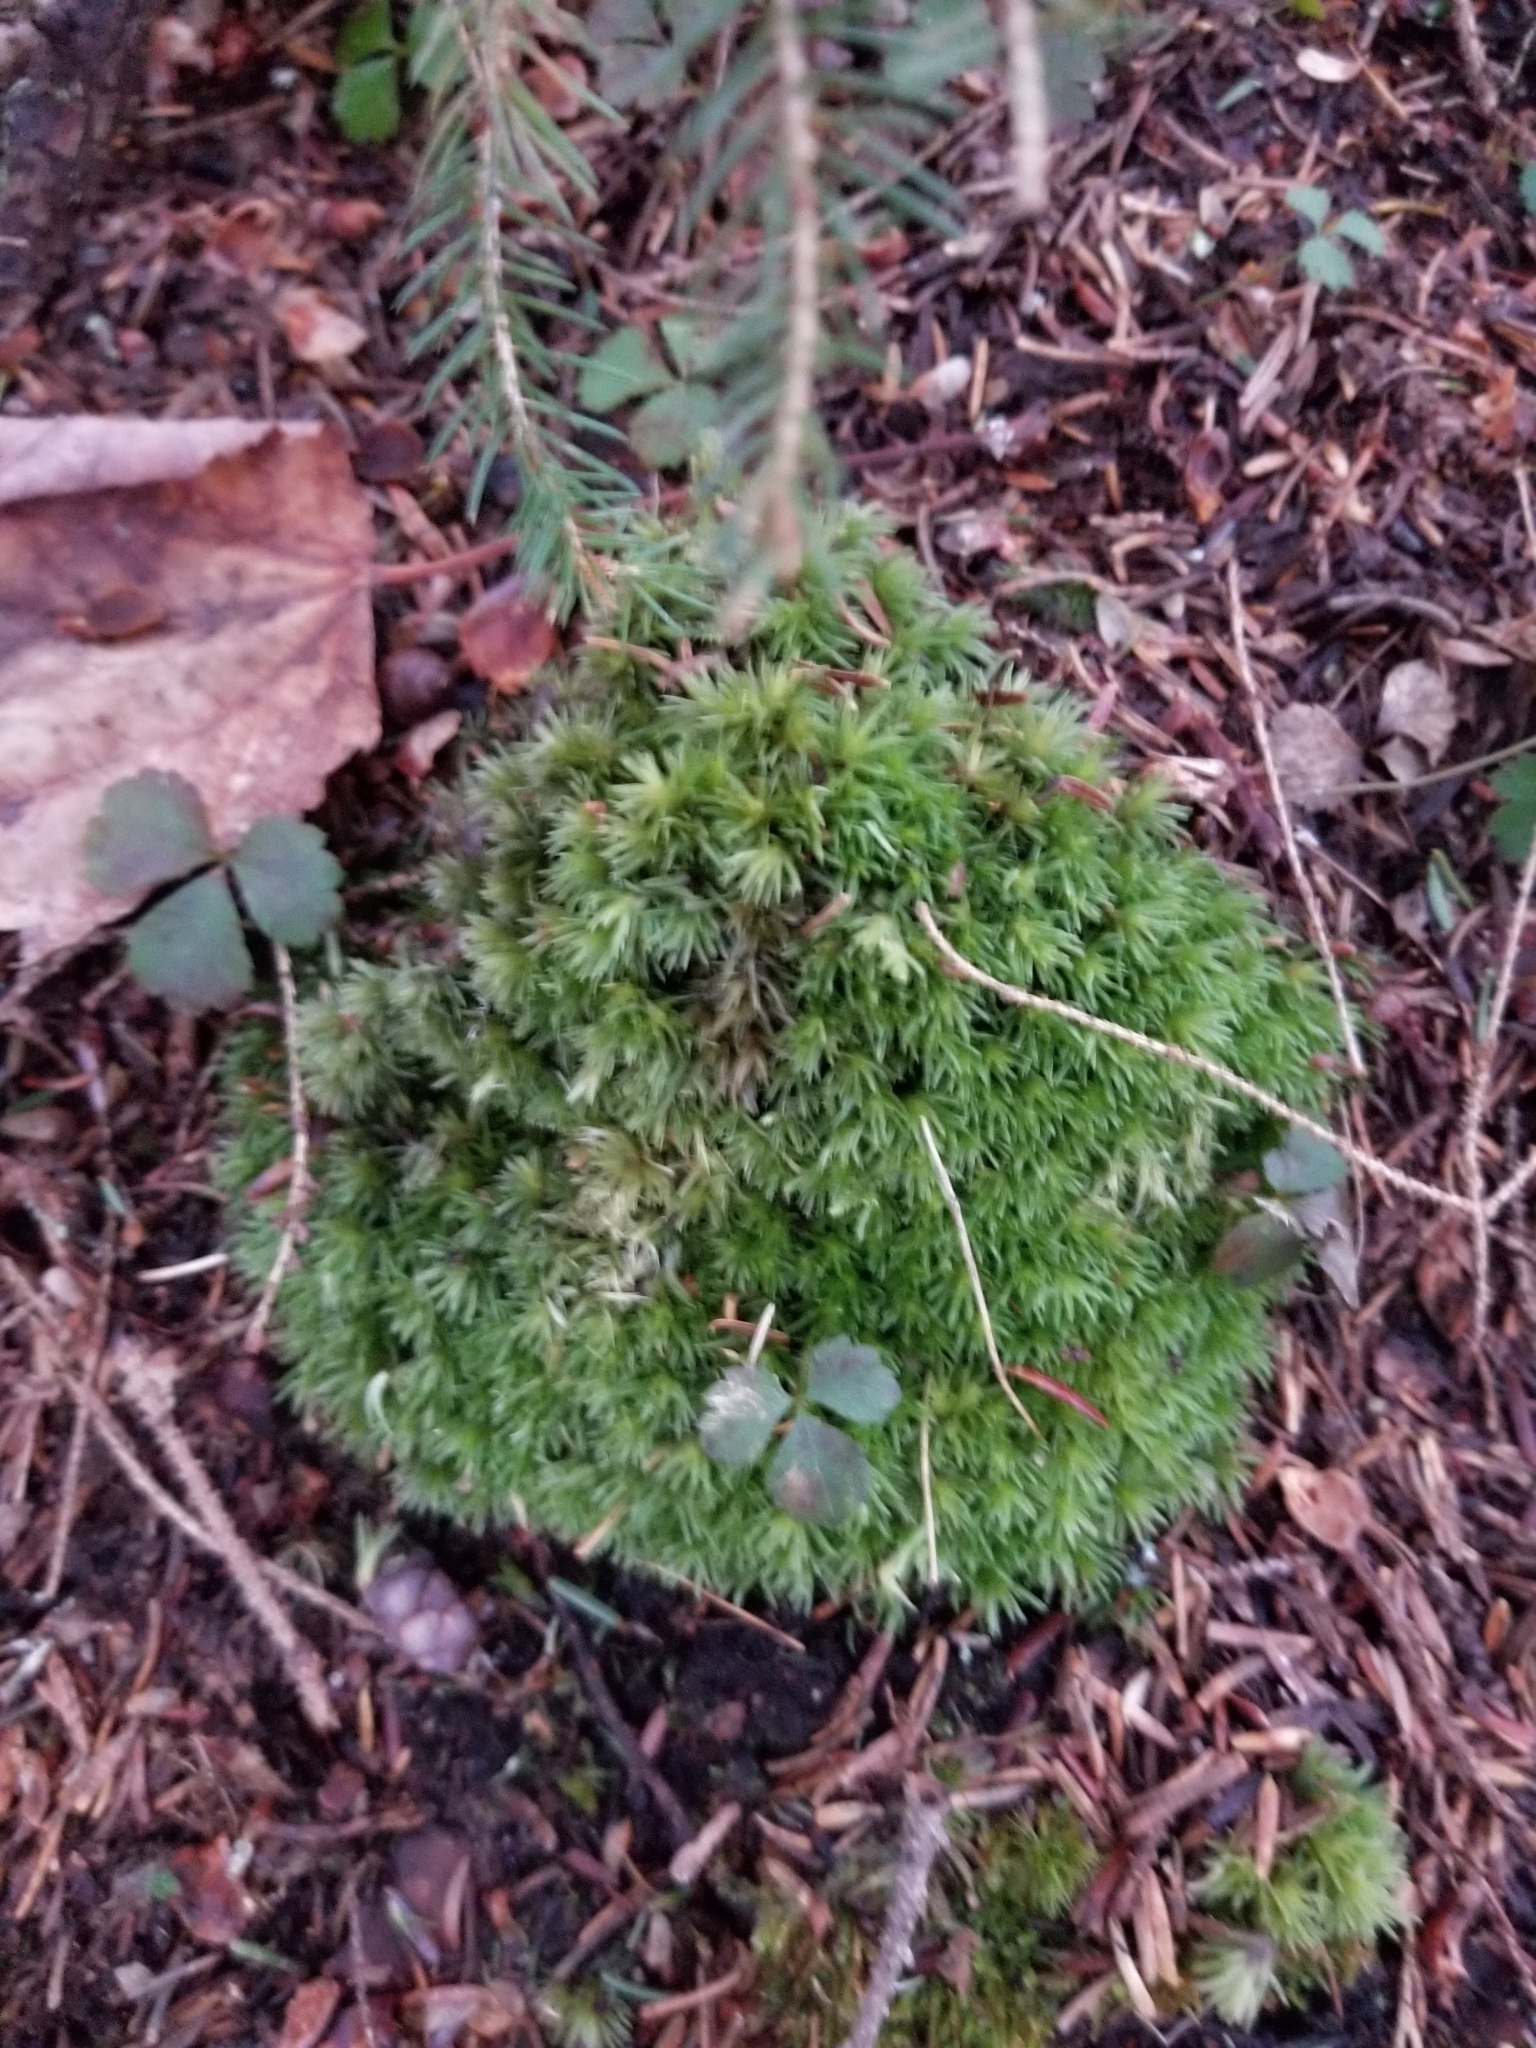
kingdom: Plantae
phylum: Tracheophyta
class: Magnoliopsida
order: Ranunculales
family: Ranunculaceae
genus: Coptis
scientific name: Coptis trifolia
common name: Canker-root
